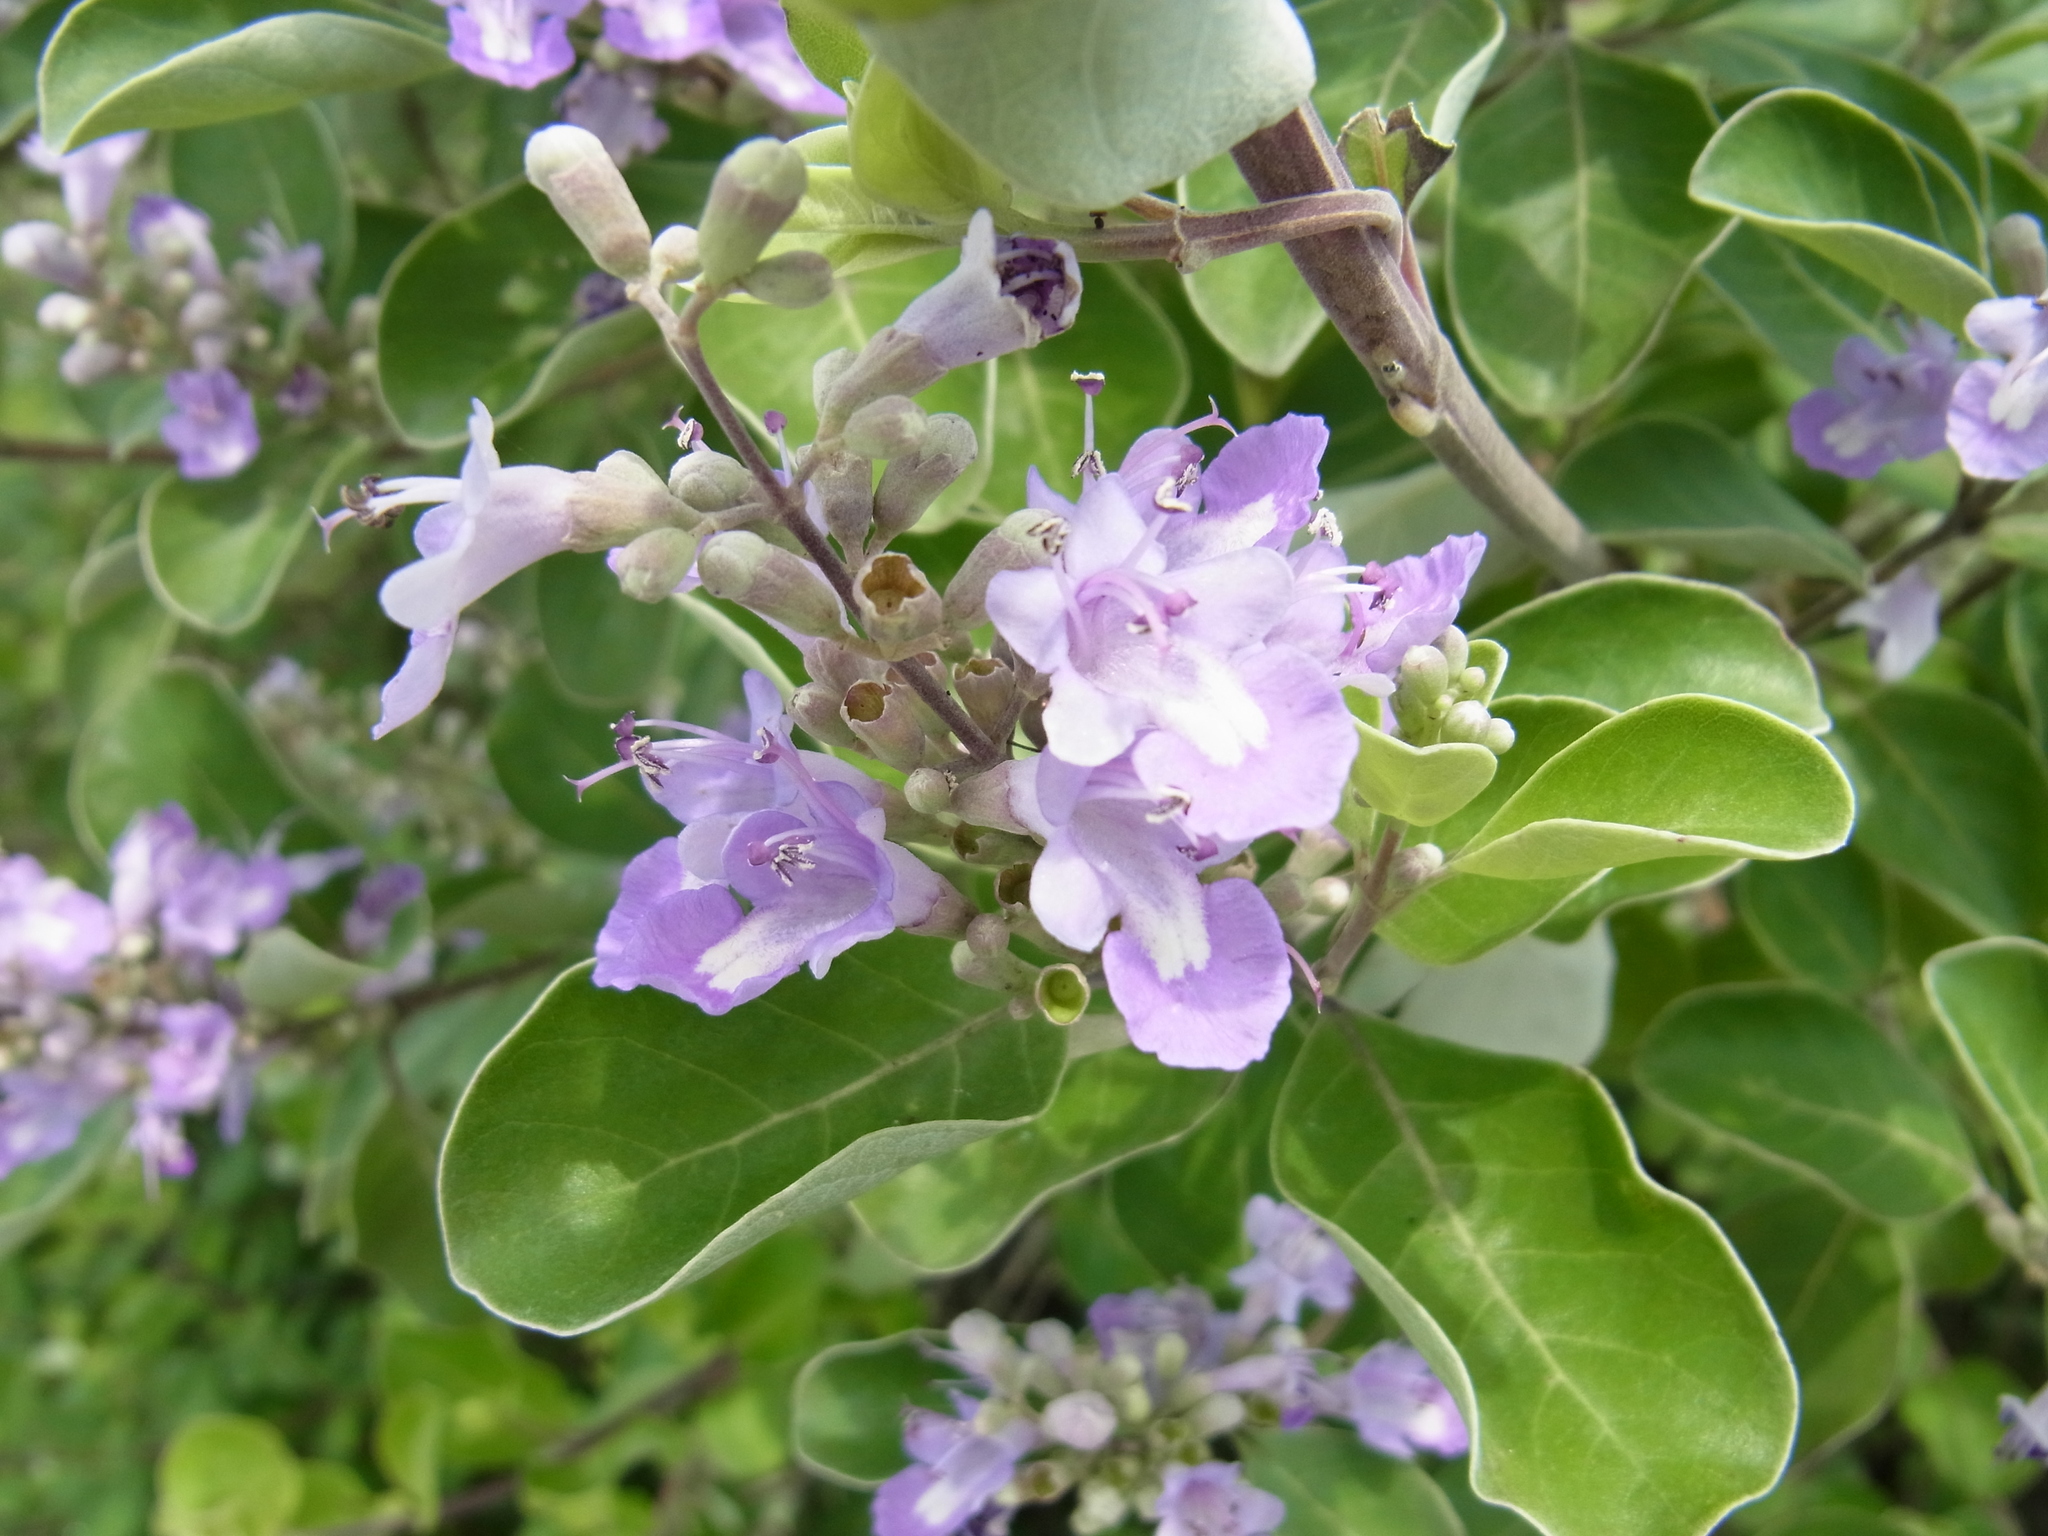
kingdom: Plantae
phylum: Tracheophyta
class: Magnoliopsida
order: Lamiales
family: Lamiaceae
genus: Vitex
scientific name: Vitex rotundifolia
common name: Beach vitex
